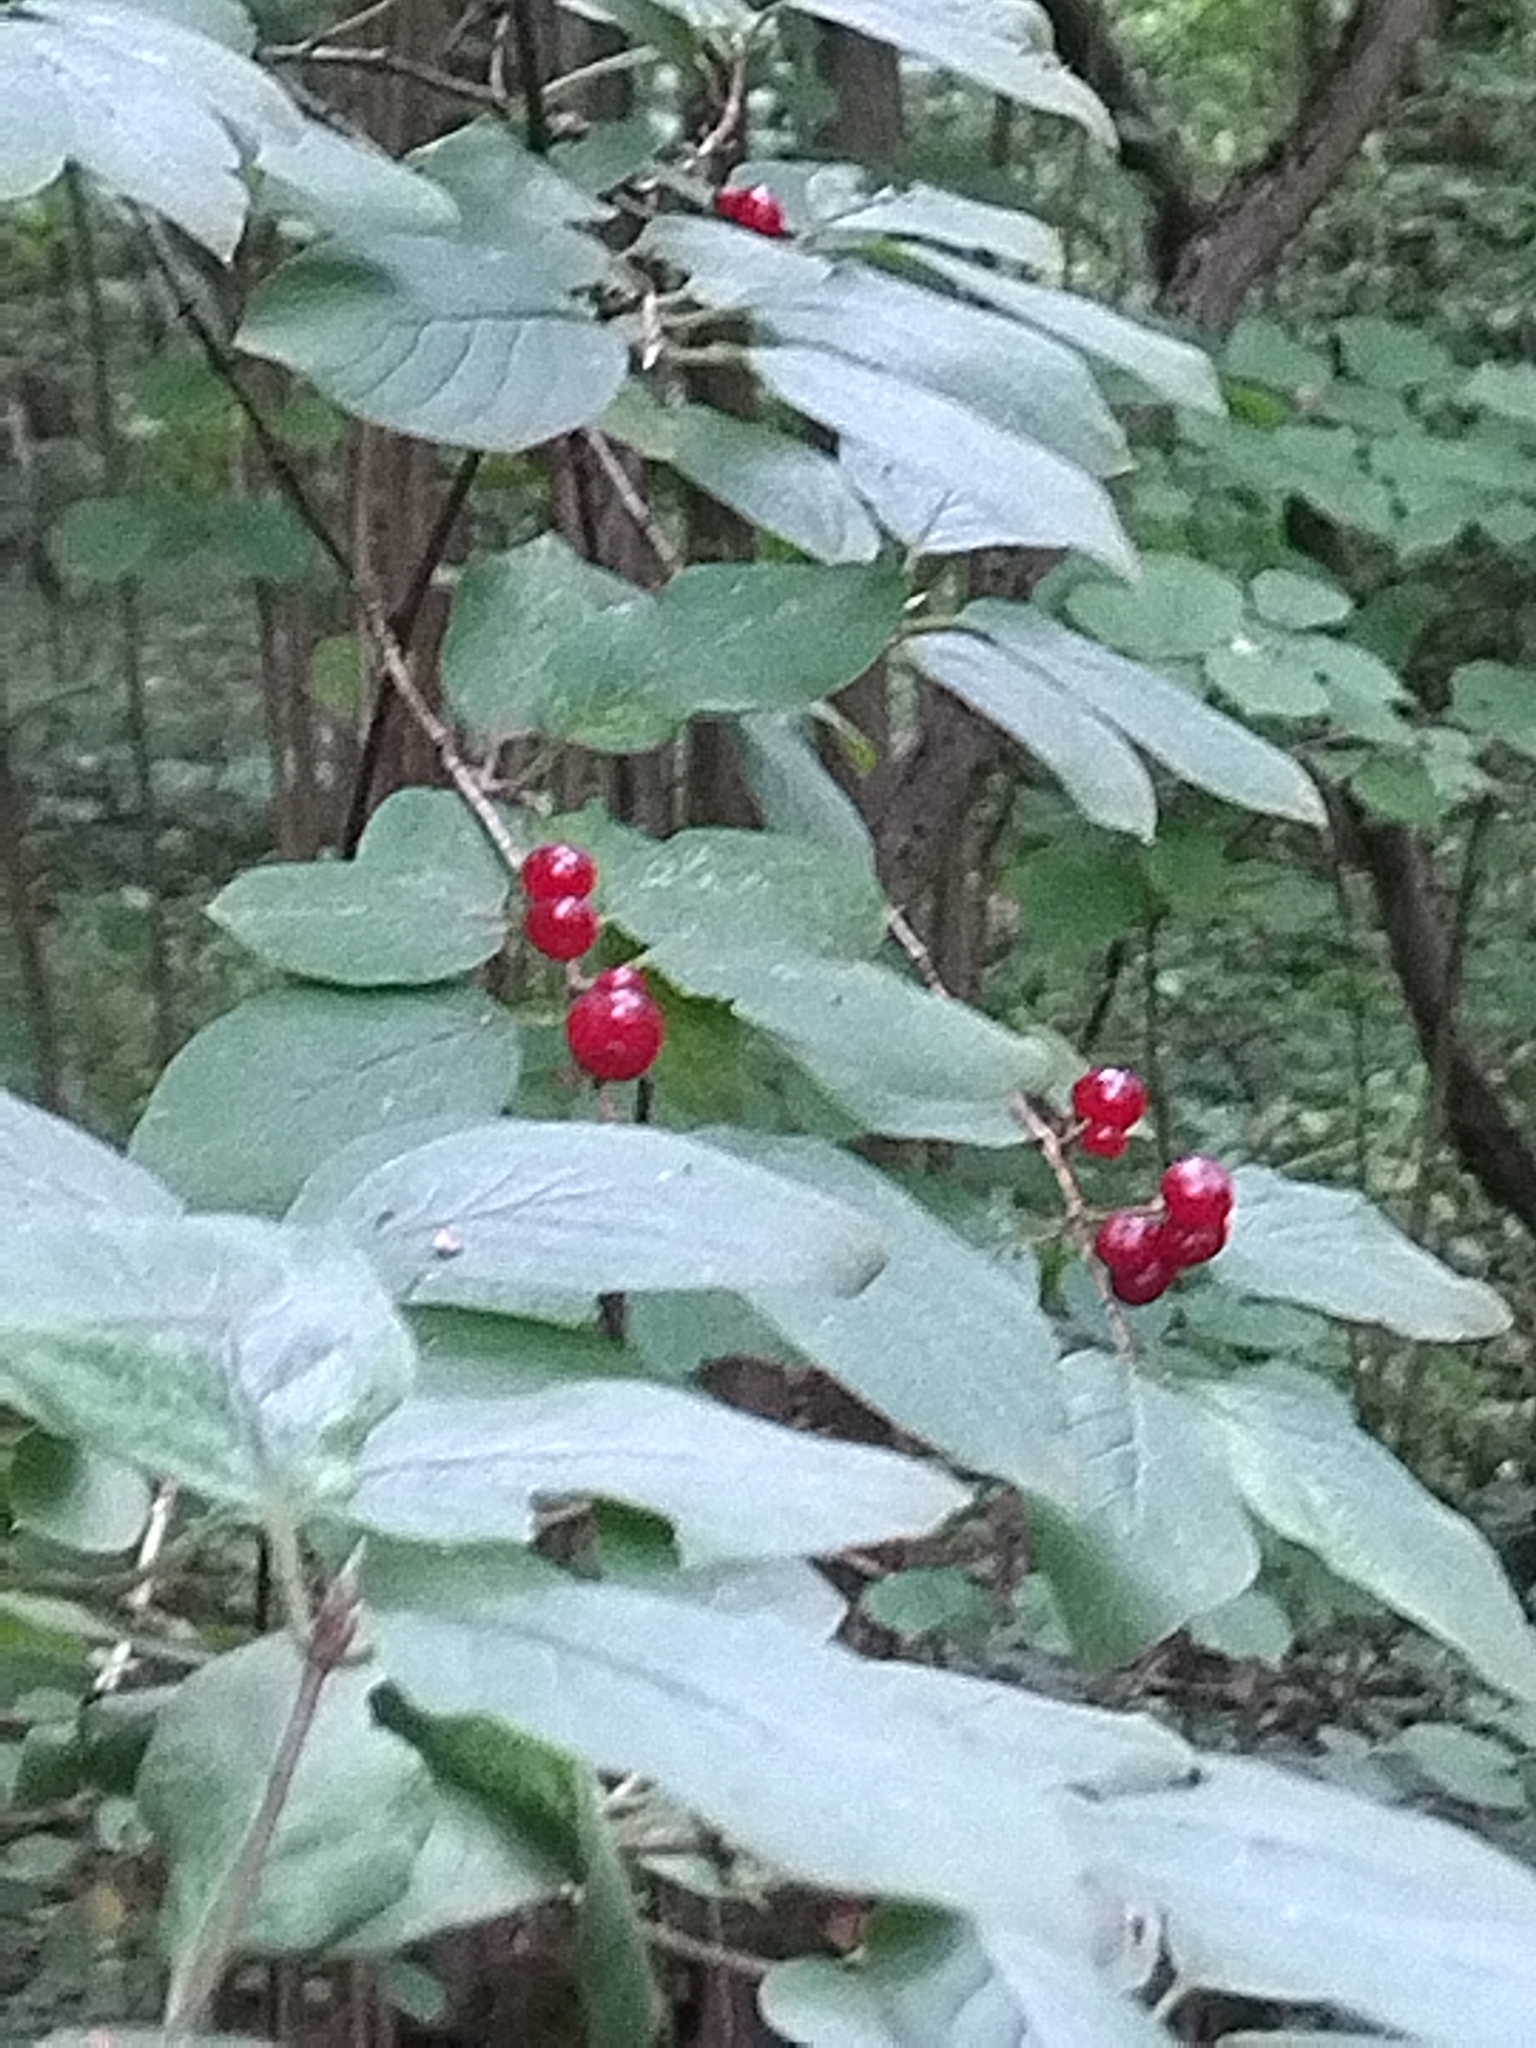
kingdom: Plantae
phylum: Tracheophyta
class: Magnoliopsida
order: Dipsacales
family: Caprifoliaceae
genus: Lonicera
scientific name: Lonicera xylosteum
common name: Fly honeysuckle
